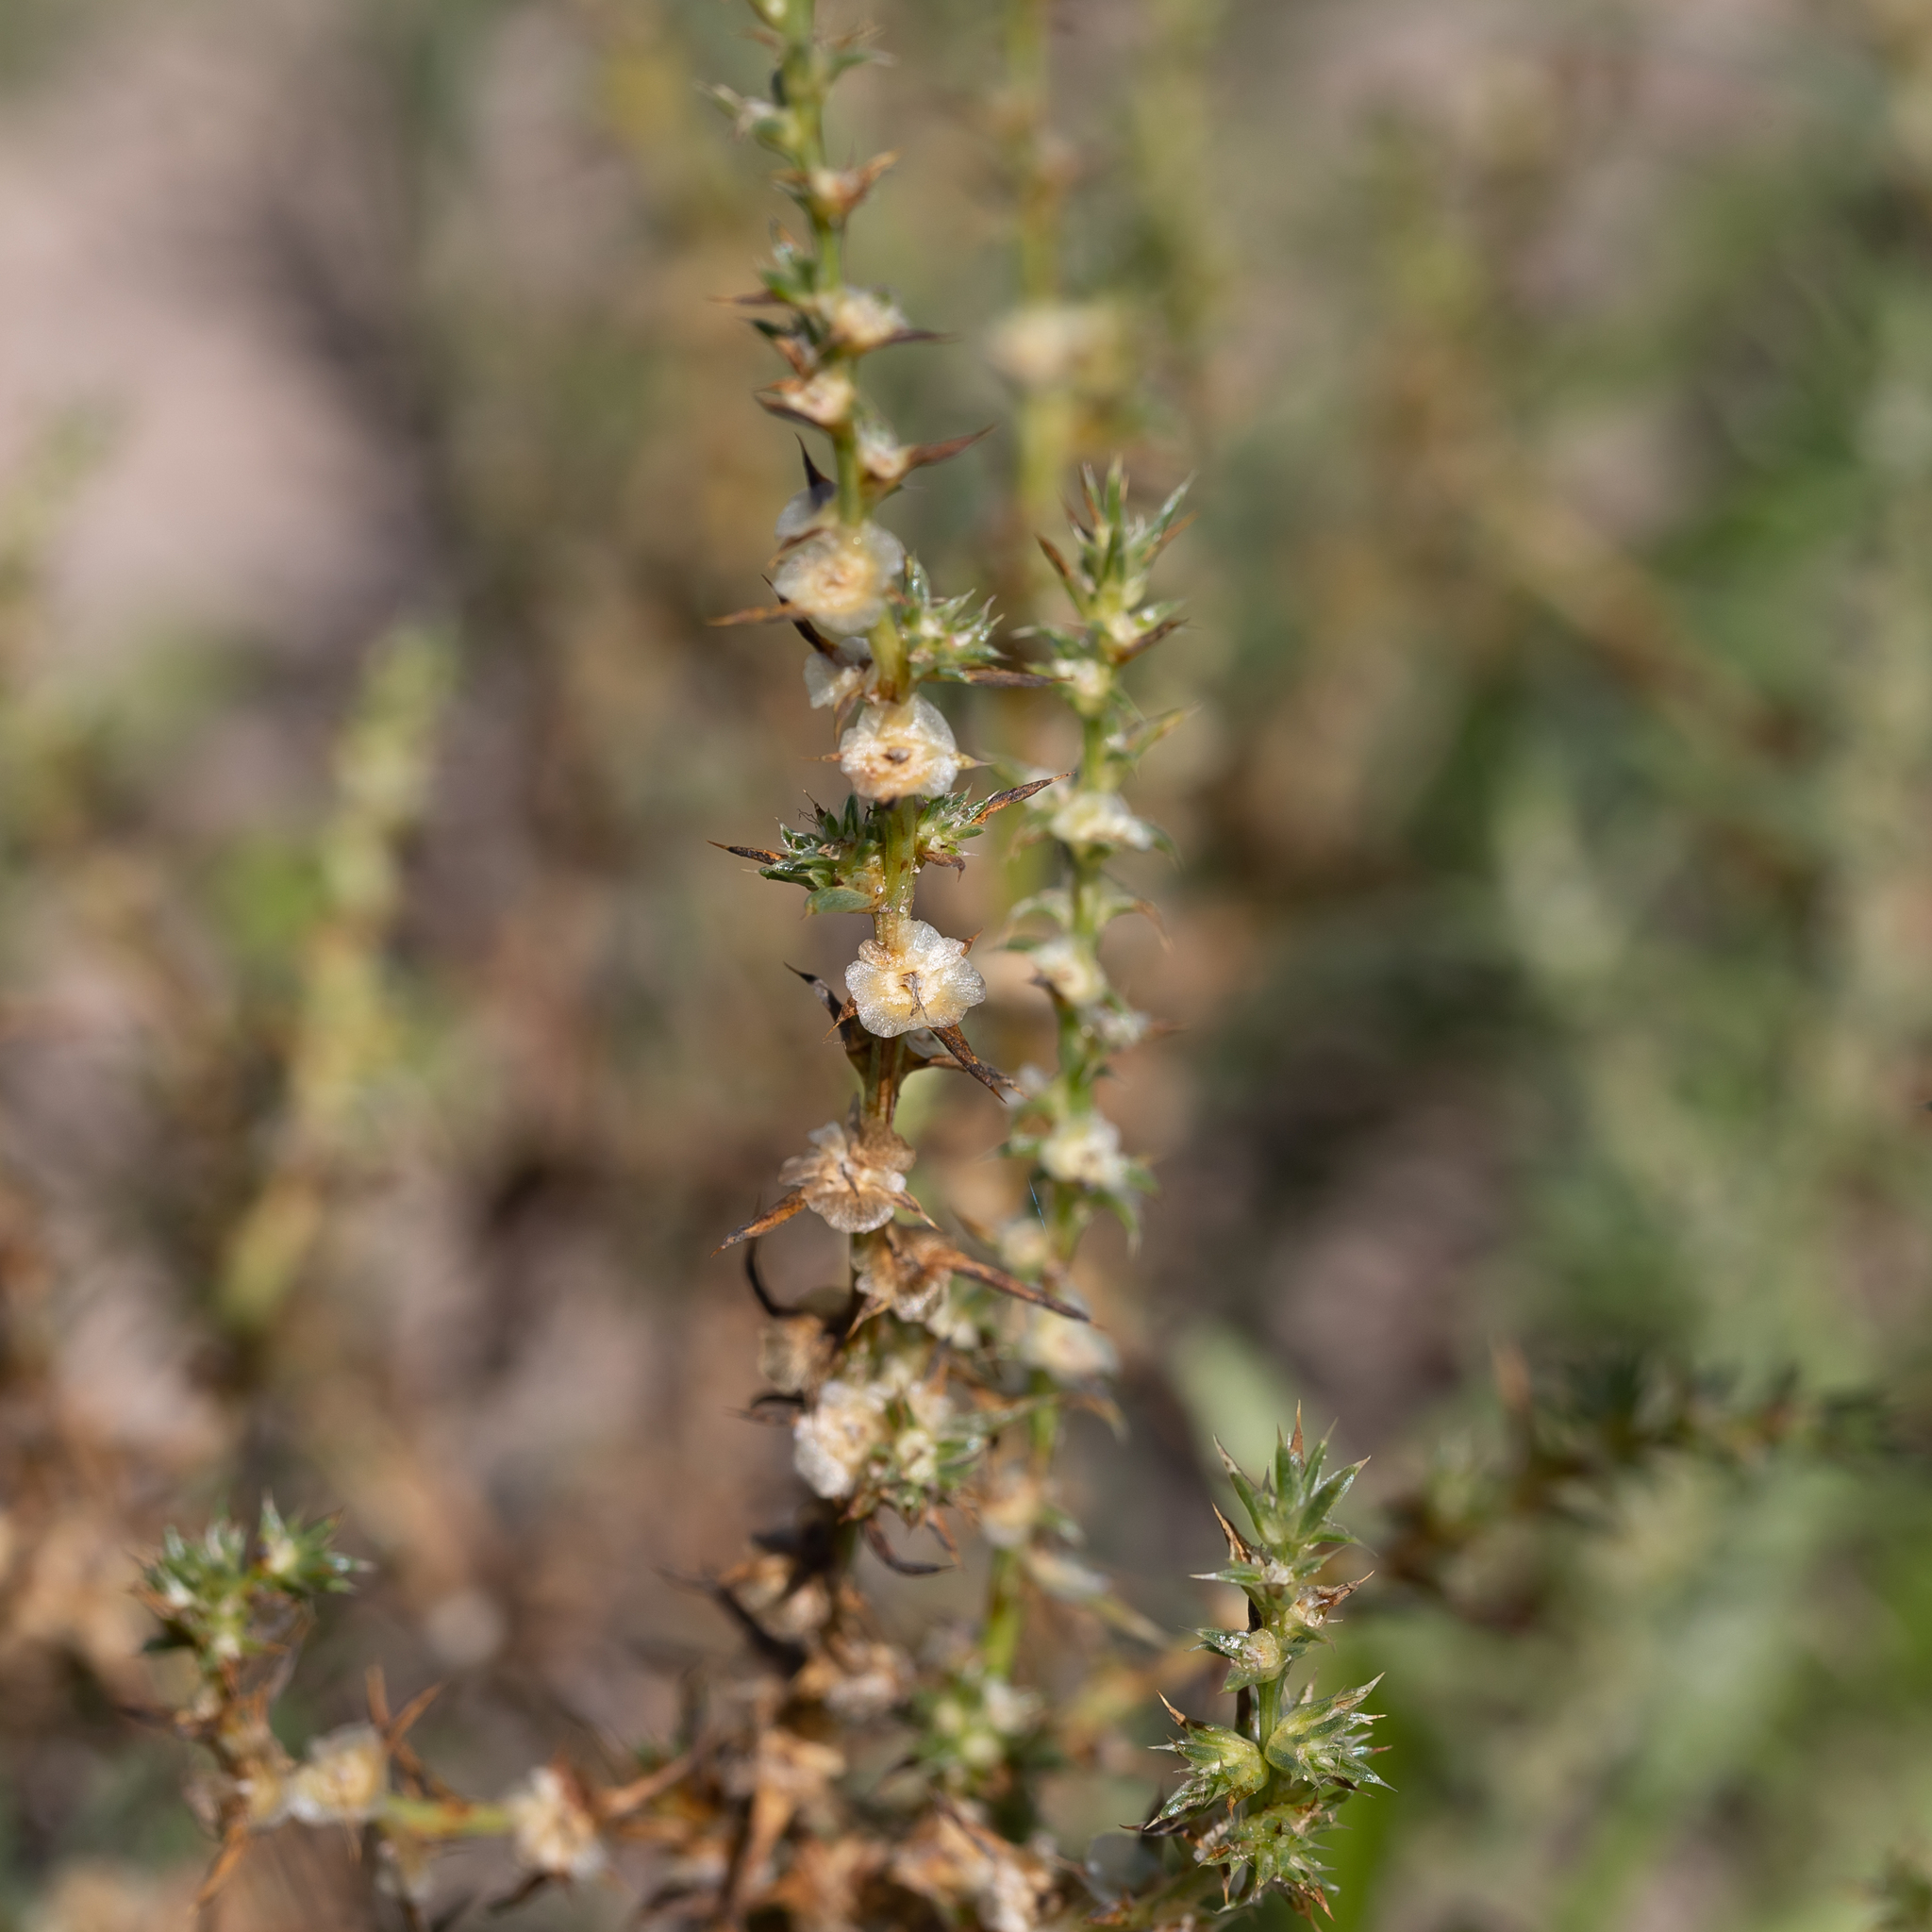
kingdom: Plantae
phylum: Tracheophyta
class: Magnoliopsida
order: Caryophyllales
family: Amaranthaceae
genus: Salsola
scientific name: Salsola australis
